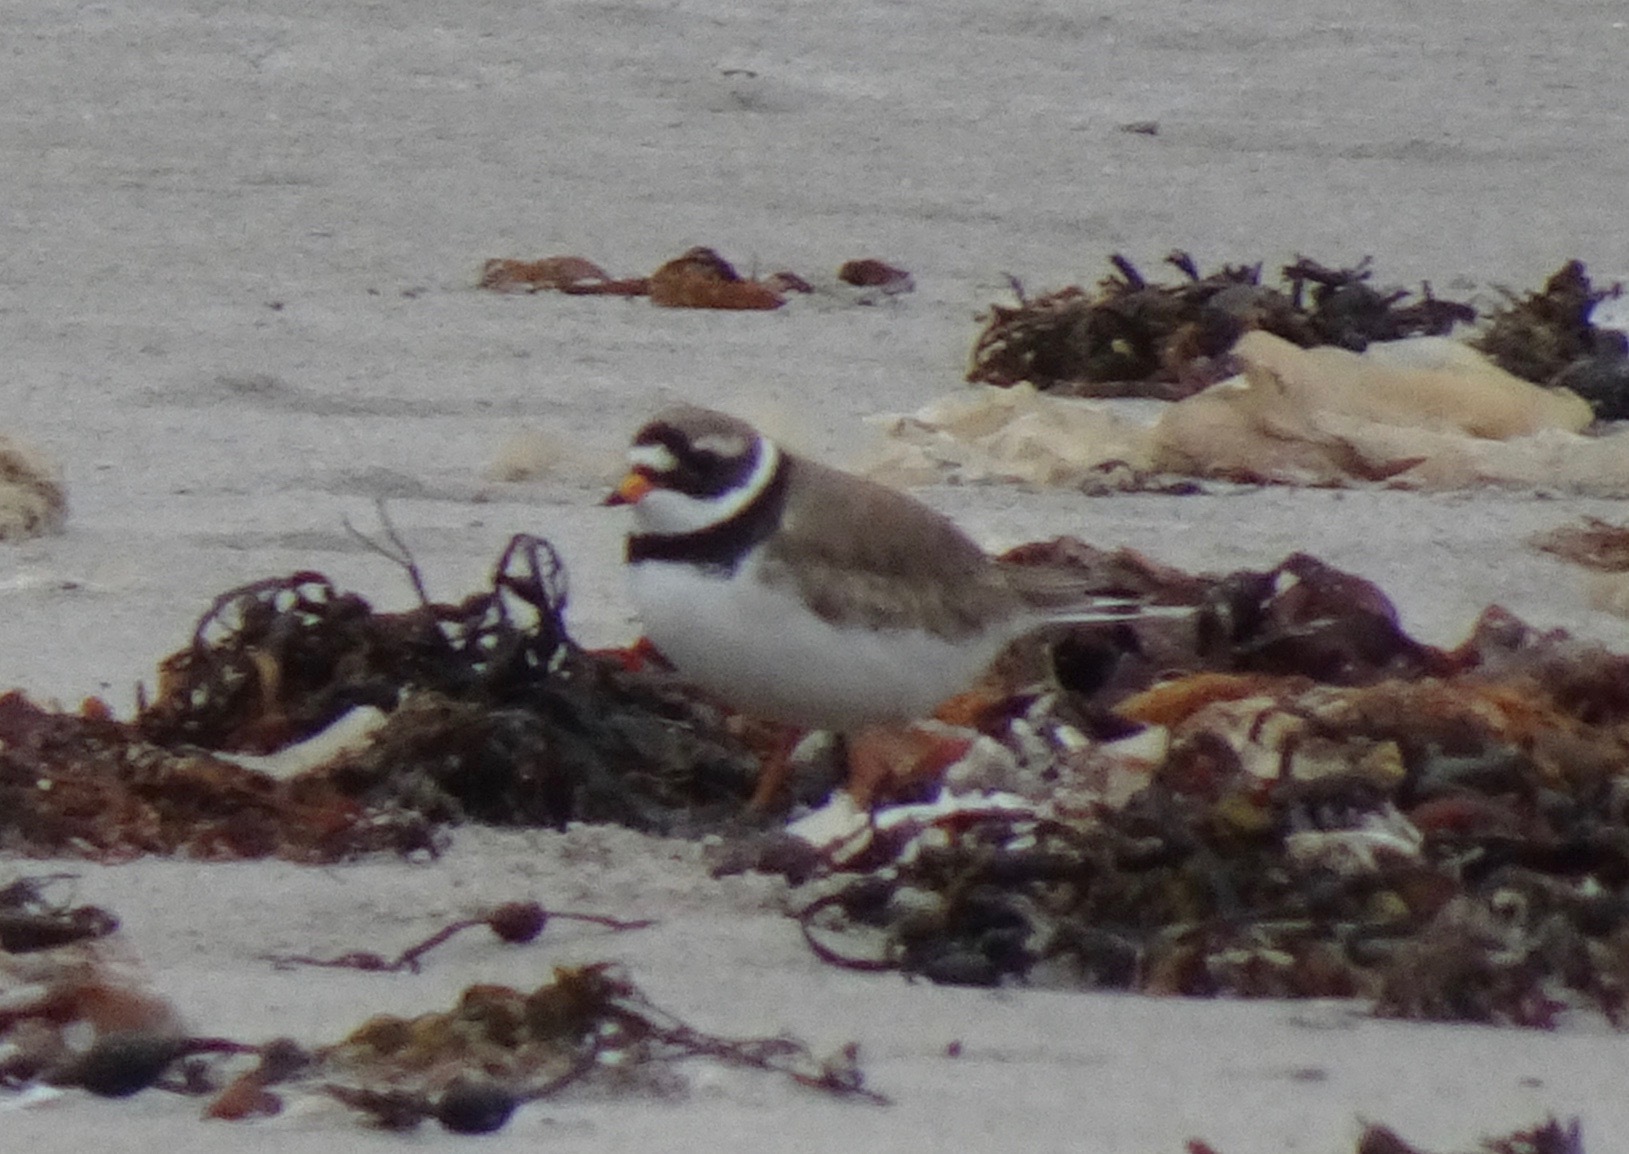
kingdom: Animalia
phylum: Chordata
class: Aves
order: Charadriiformes
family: Charadriidae
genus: Charadrius
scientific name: Charadrius hiaticula
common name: Common ringed plover
